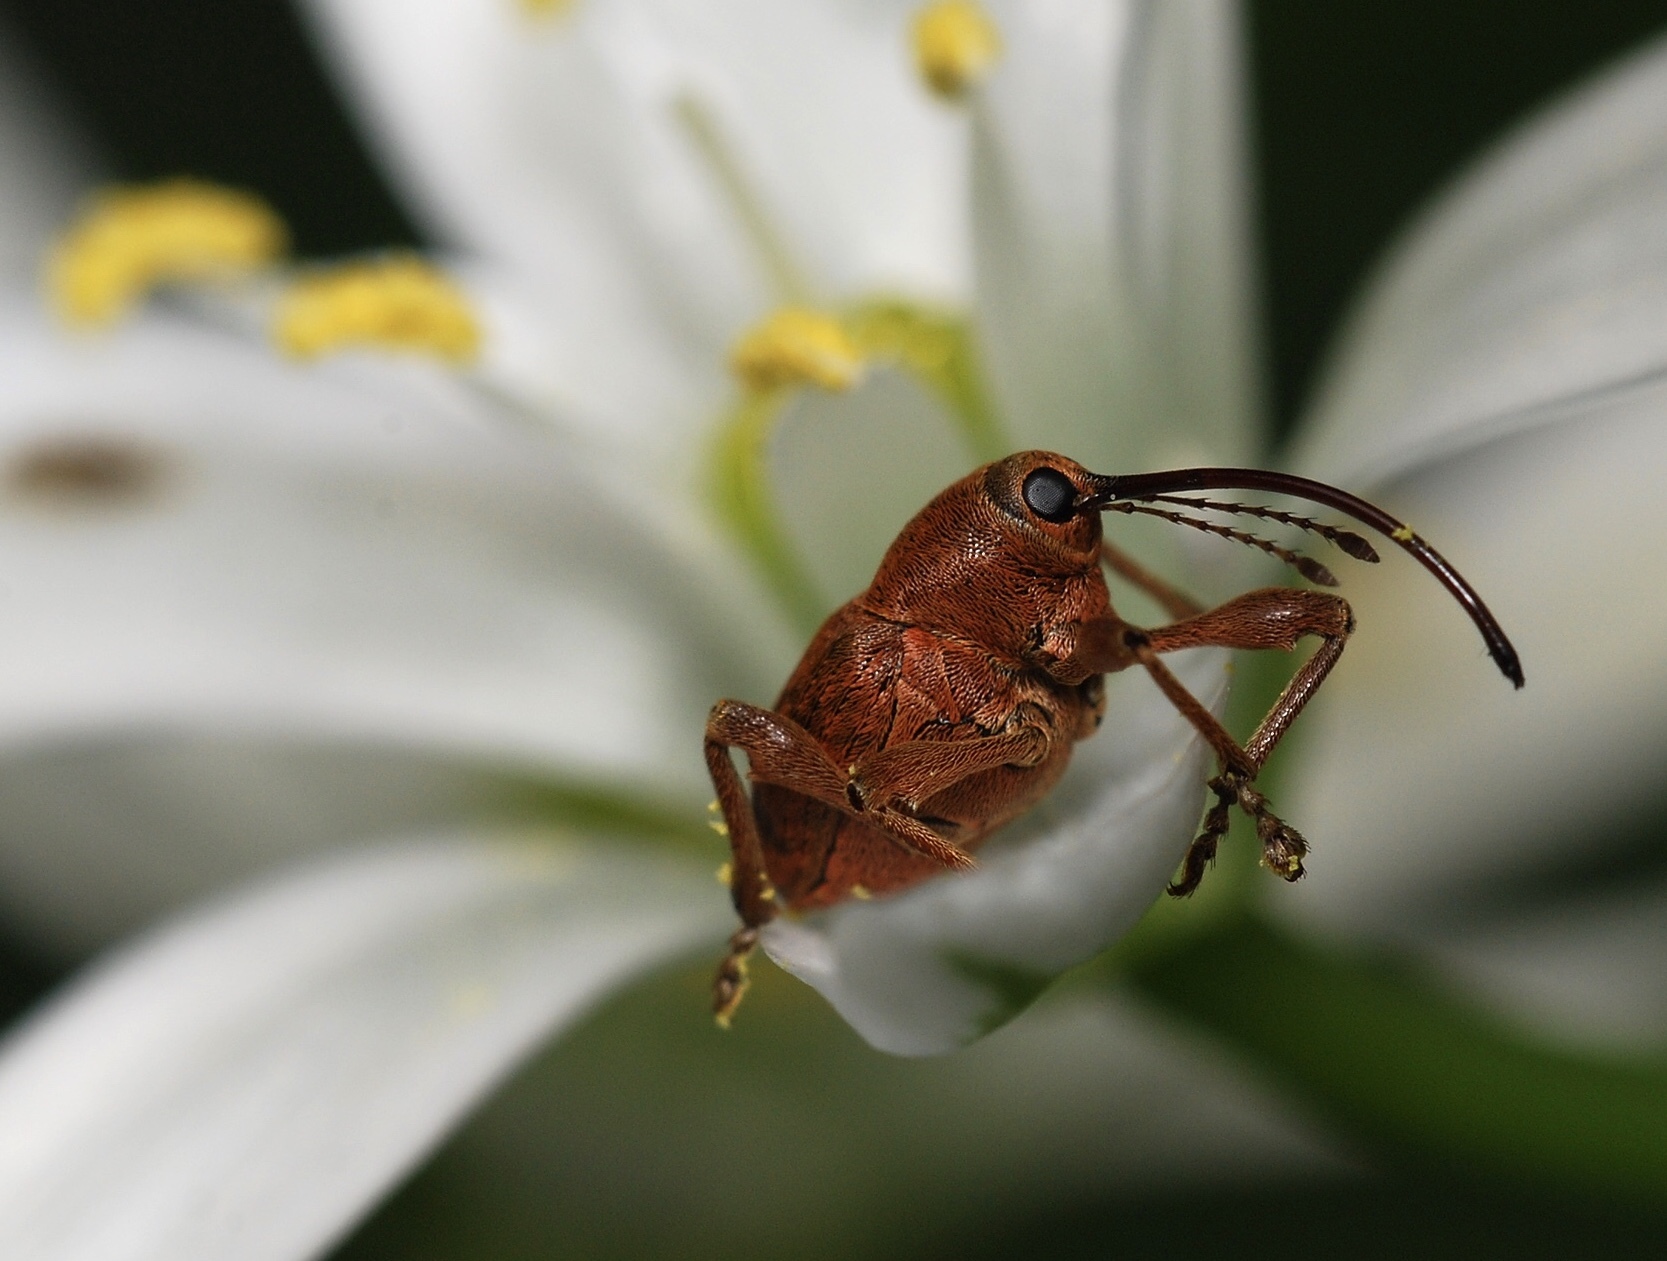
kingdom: Animalia
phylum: Arthropoda
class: Insecta
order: Coleoptera
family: Curculionidae
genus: Curculio
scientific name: Curculio glandium
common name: Acorn weevil
